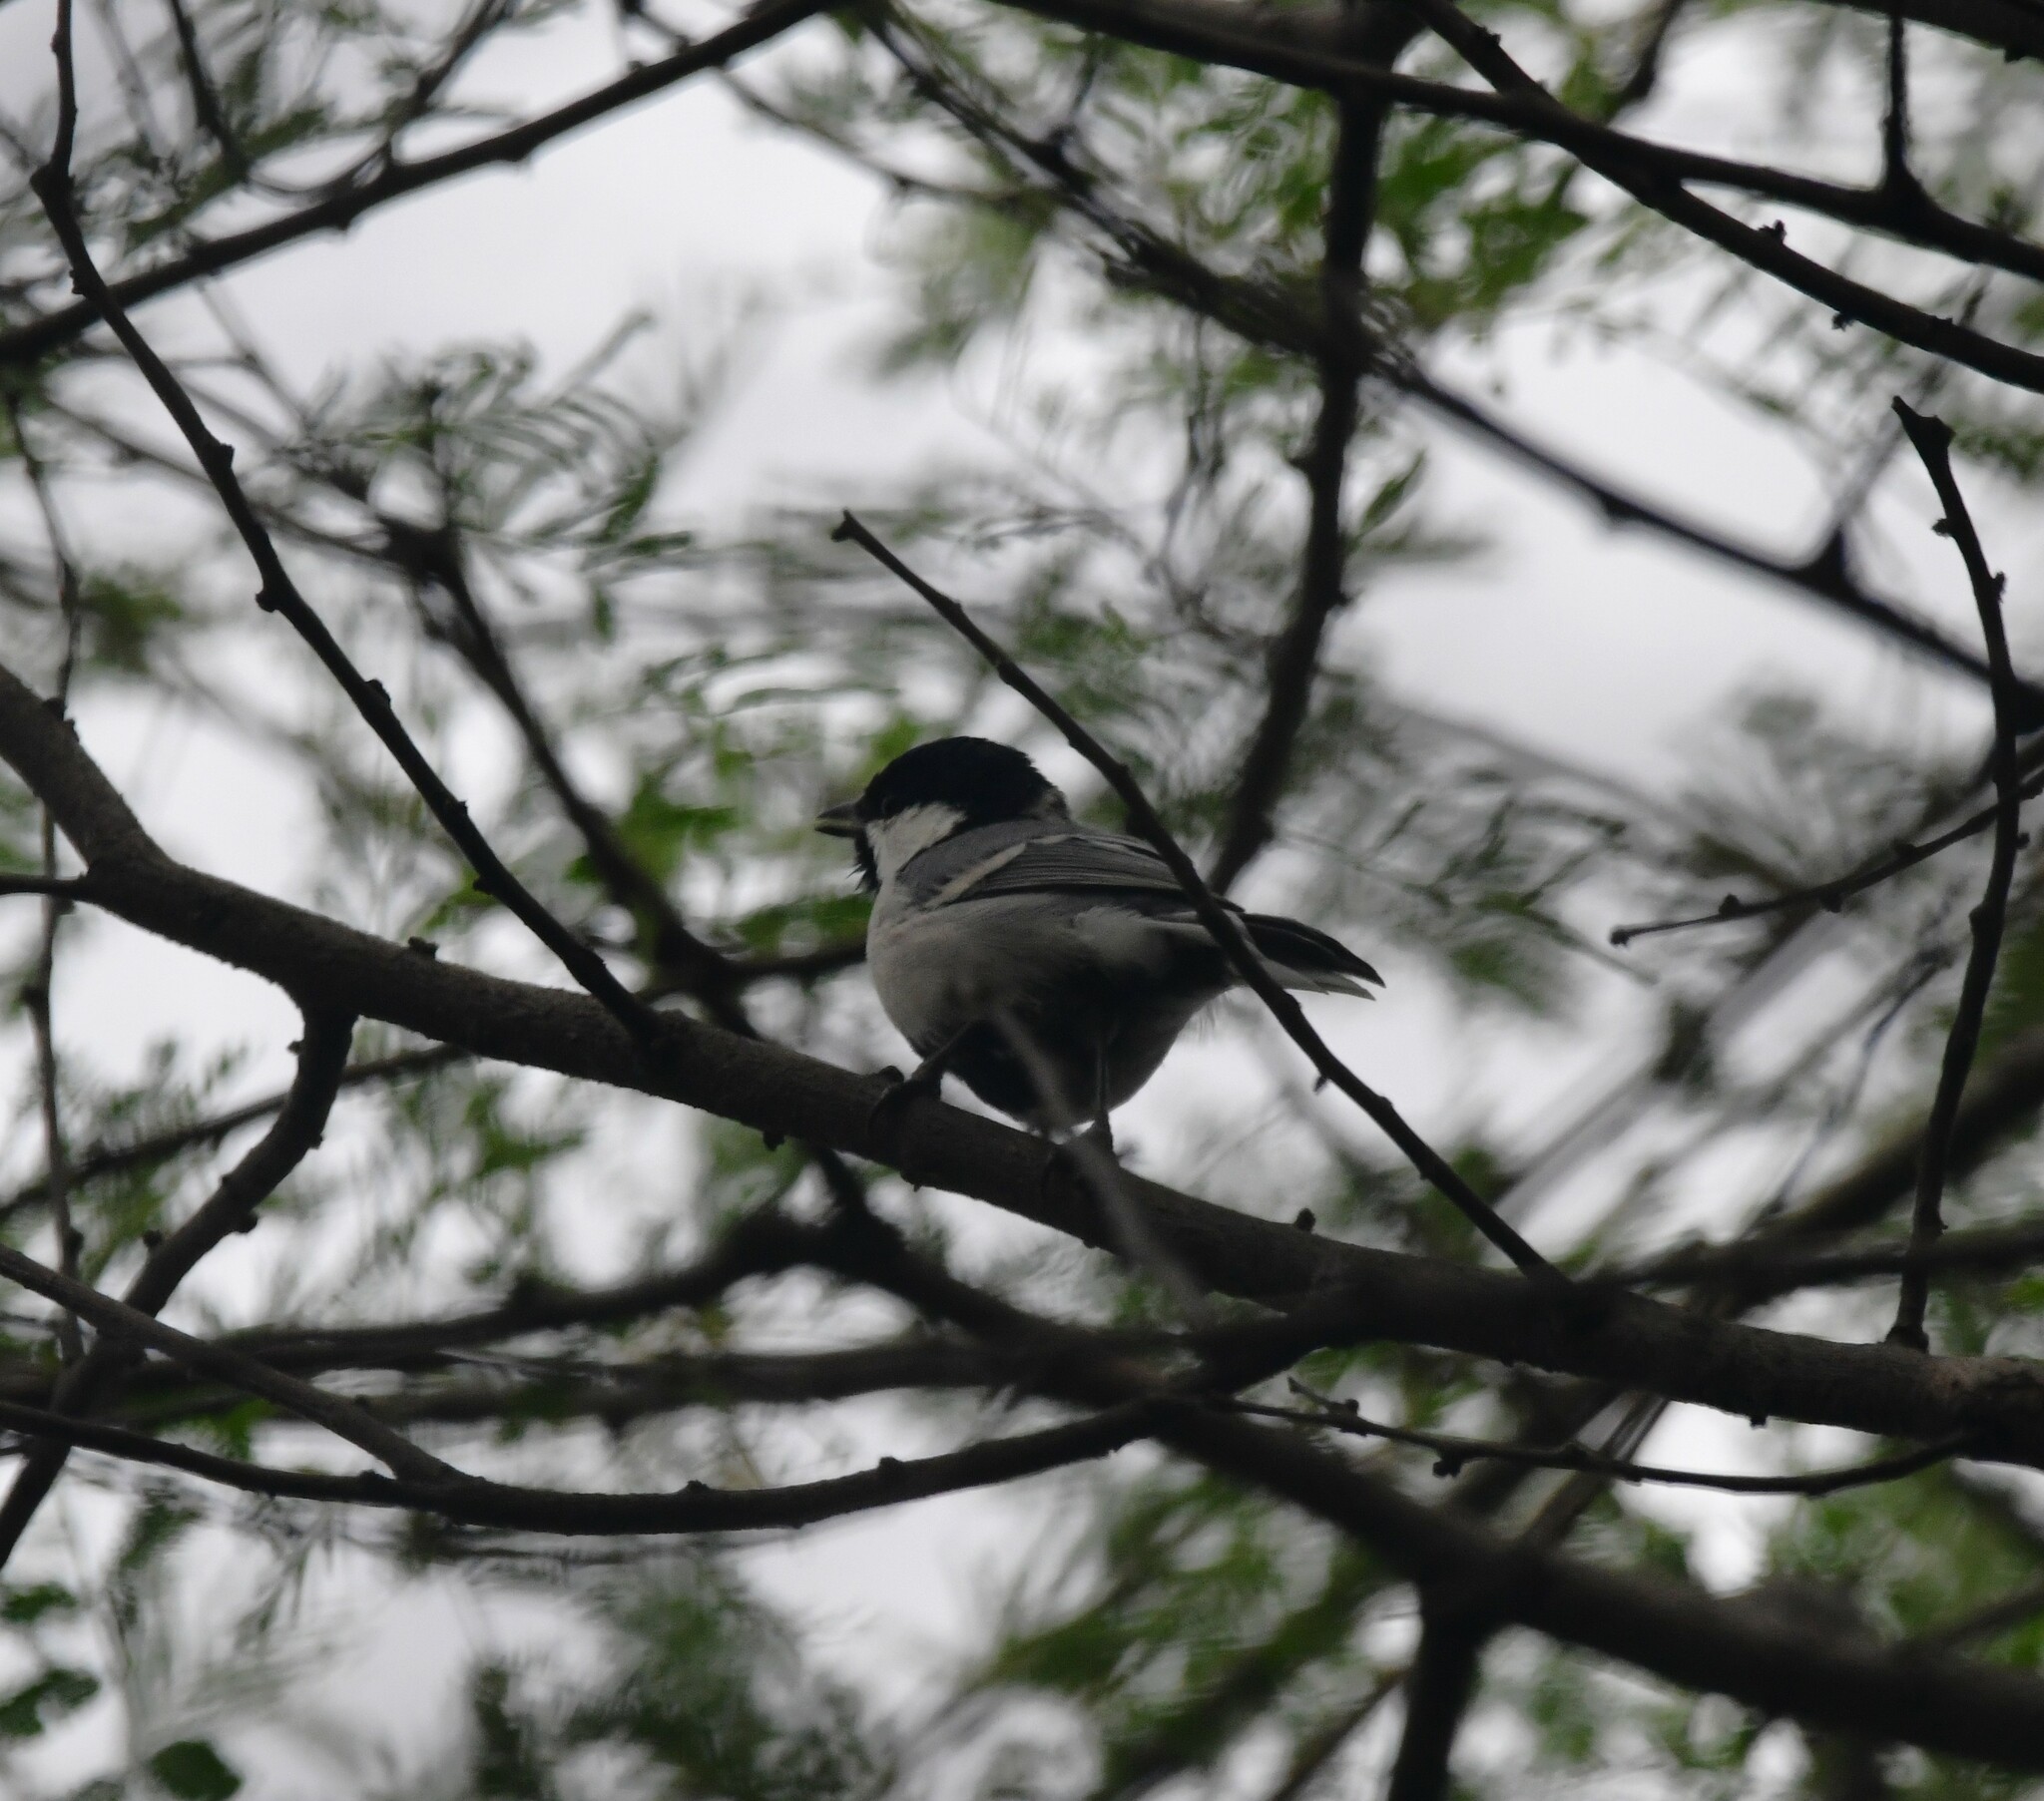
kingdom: Animalia
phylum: Chordata
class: Aves
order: Passeriformes
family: Paridae
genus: Parus
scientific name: Parus cinereus
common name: Cinereous tit
